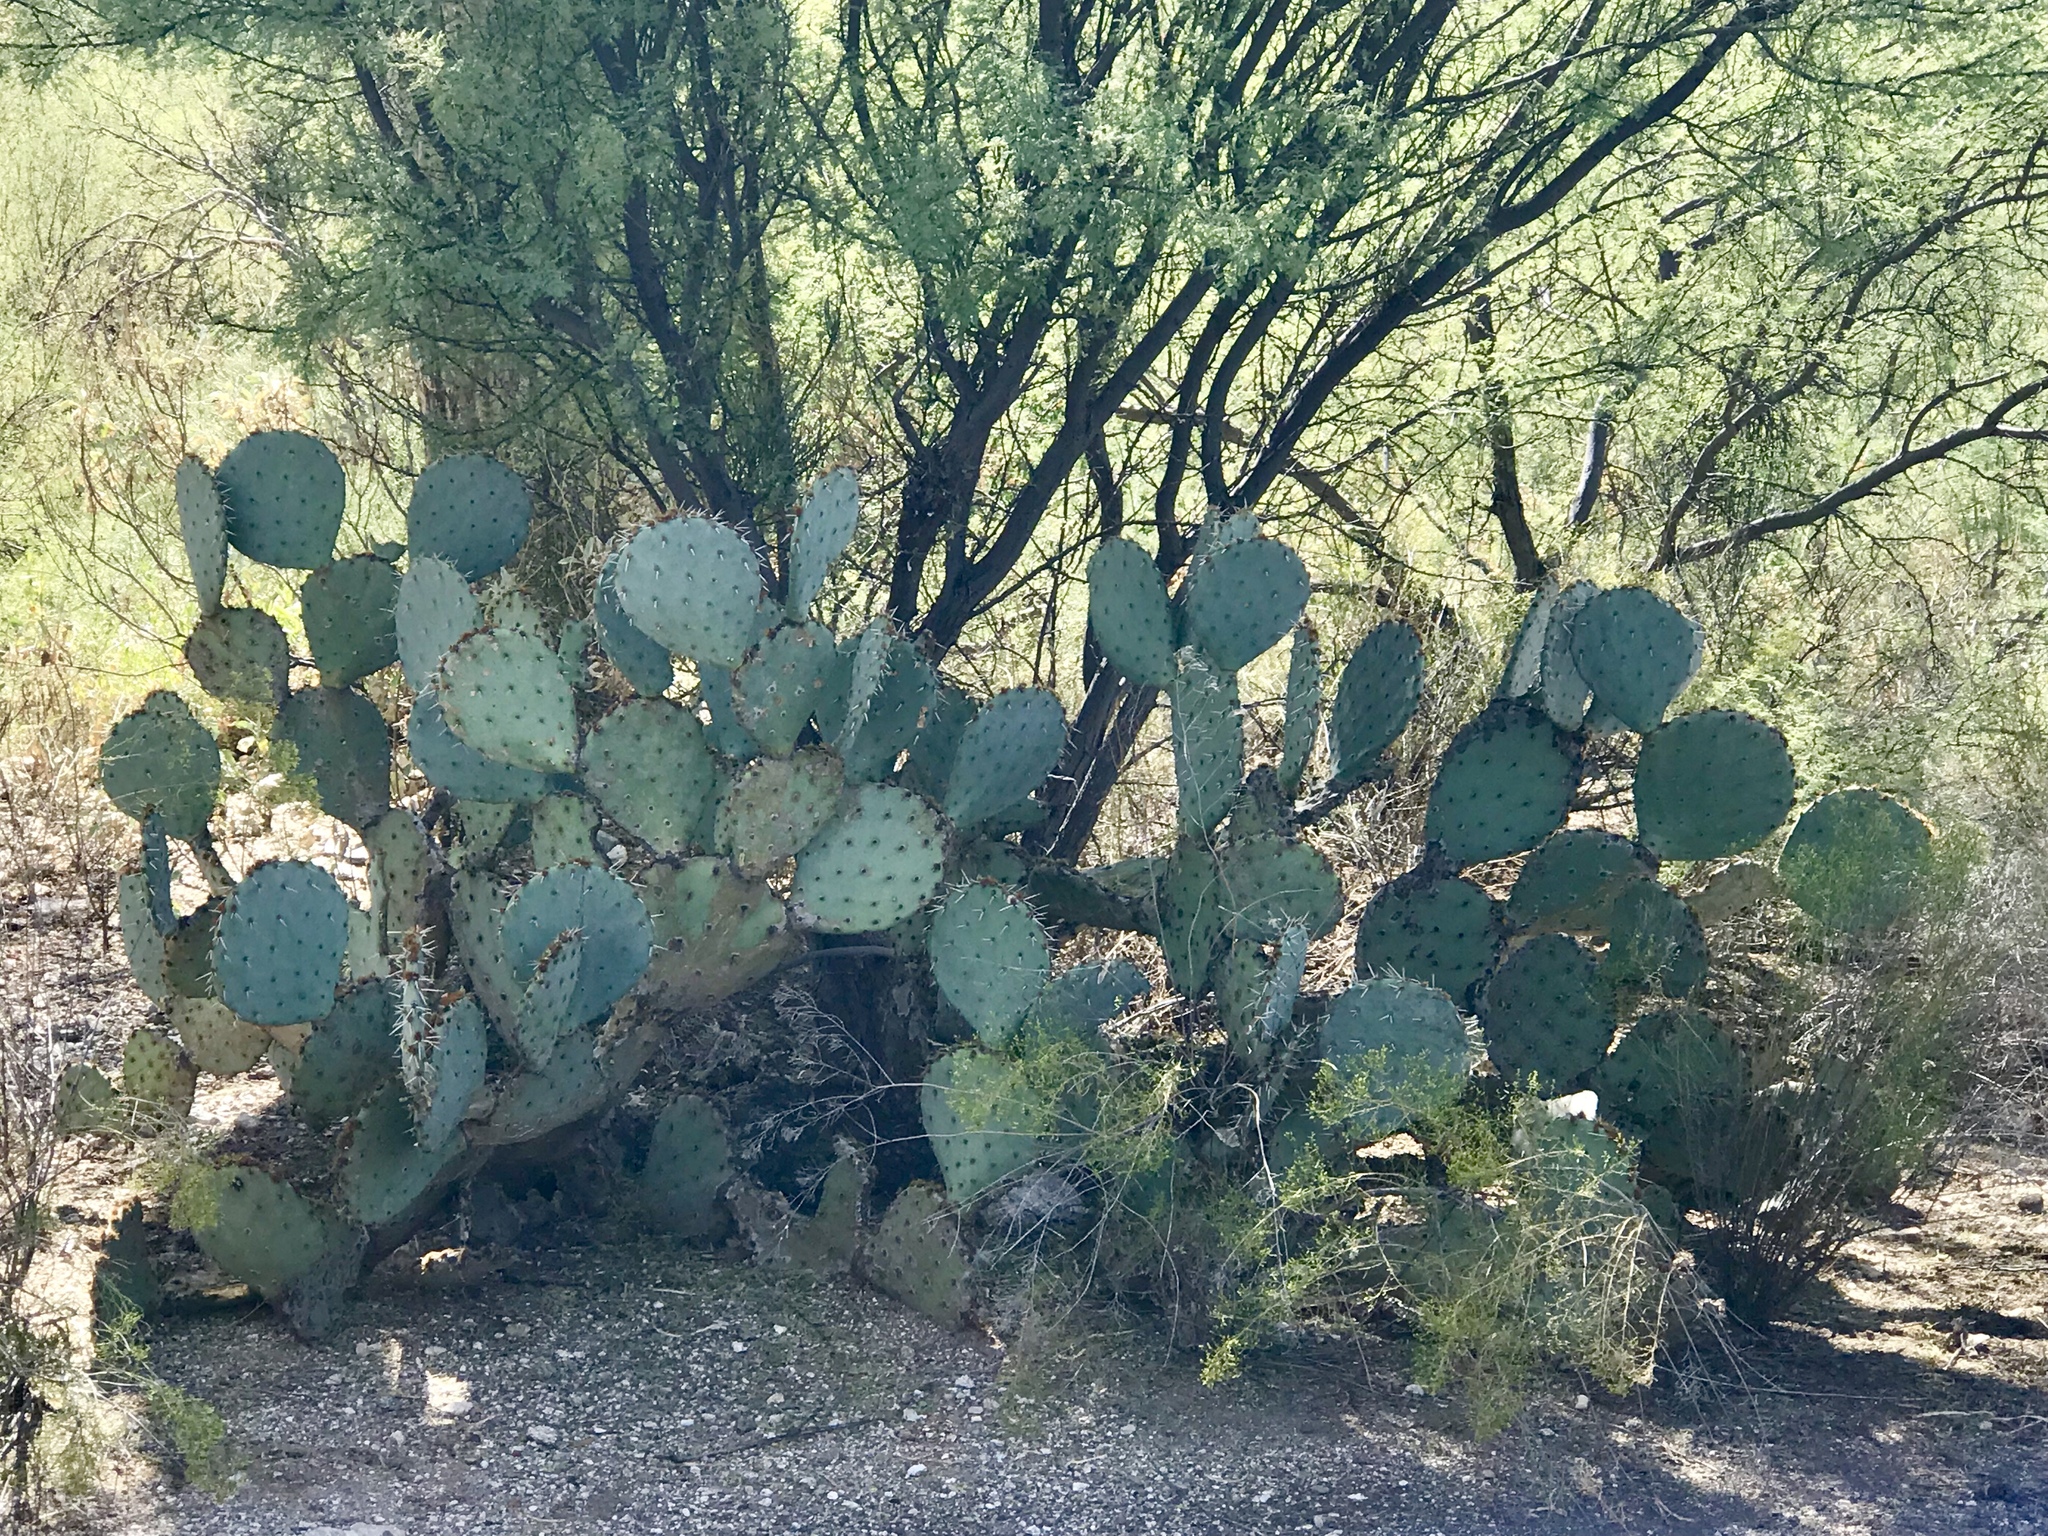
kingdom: Plantae
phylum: Tracheophyta
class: Magnoliopsida
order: Caryophyllales
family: Cactaceae
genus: Opuntia
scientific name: Opuntia engelmannii
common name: Cactus-apple
